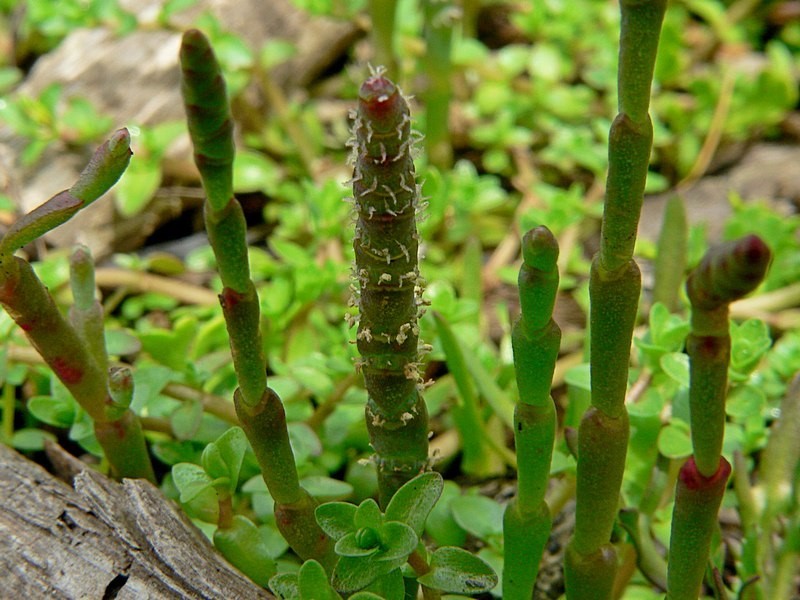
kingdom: Plantae
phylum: Tracheophyta
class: Magnoliopsida
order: Caryophyllales
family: Amaranthaceae
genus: Salicornia
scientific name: Salicornia quinqueflora
